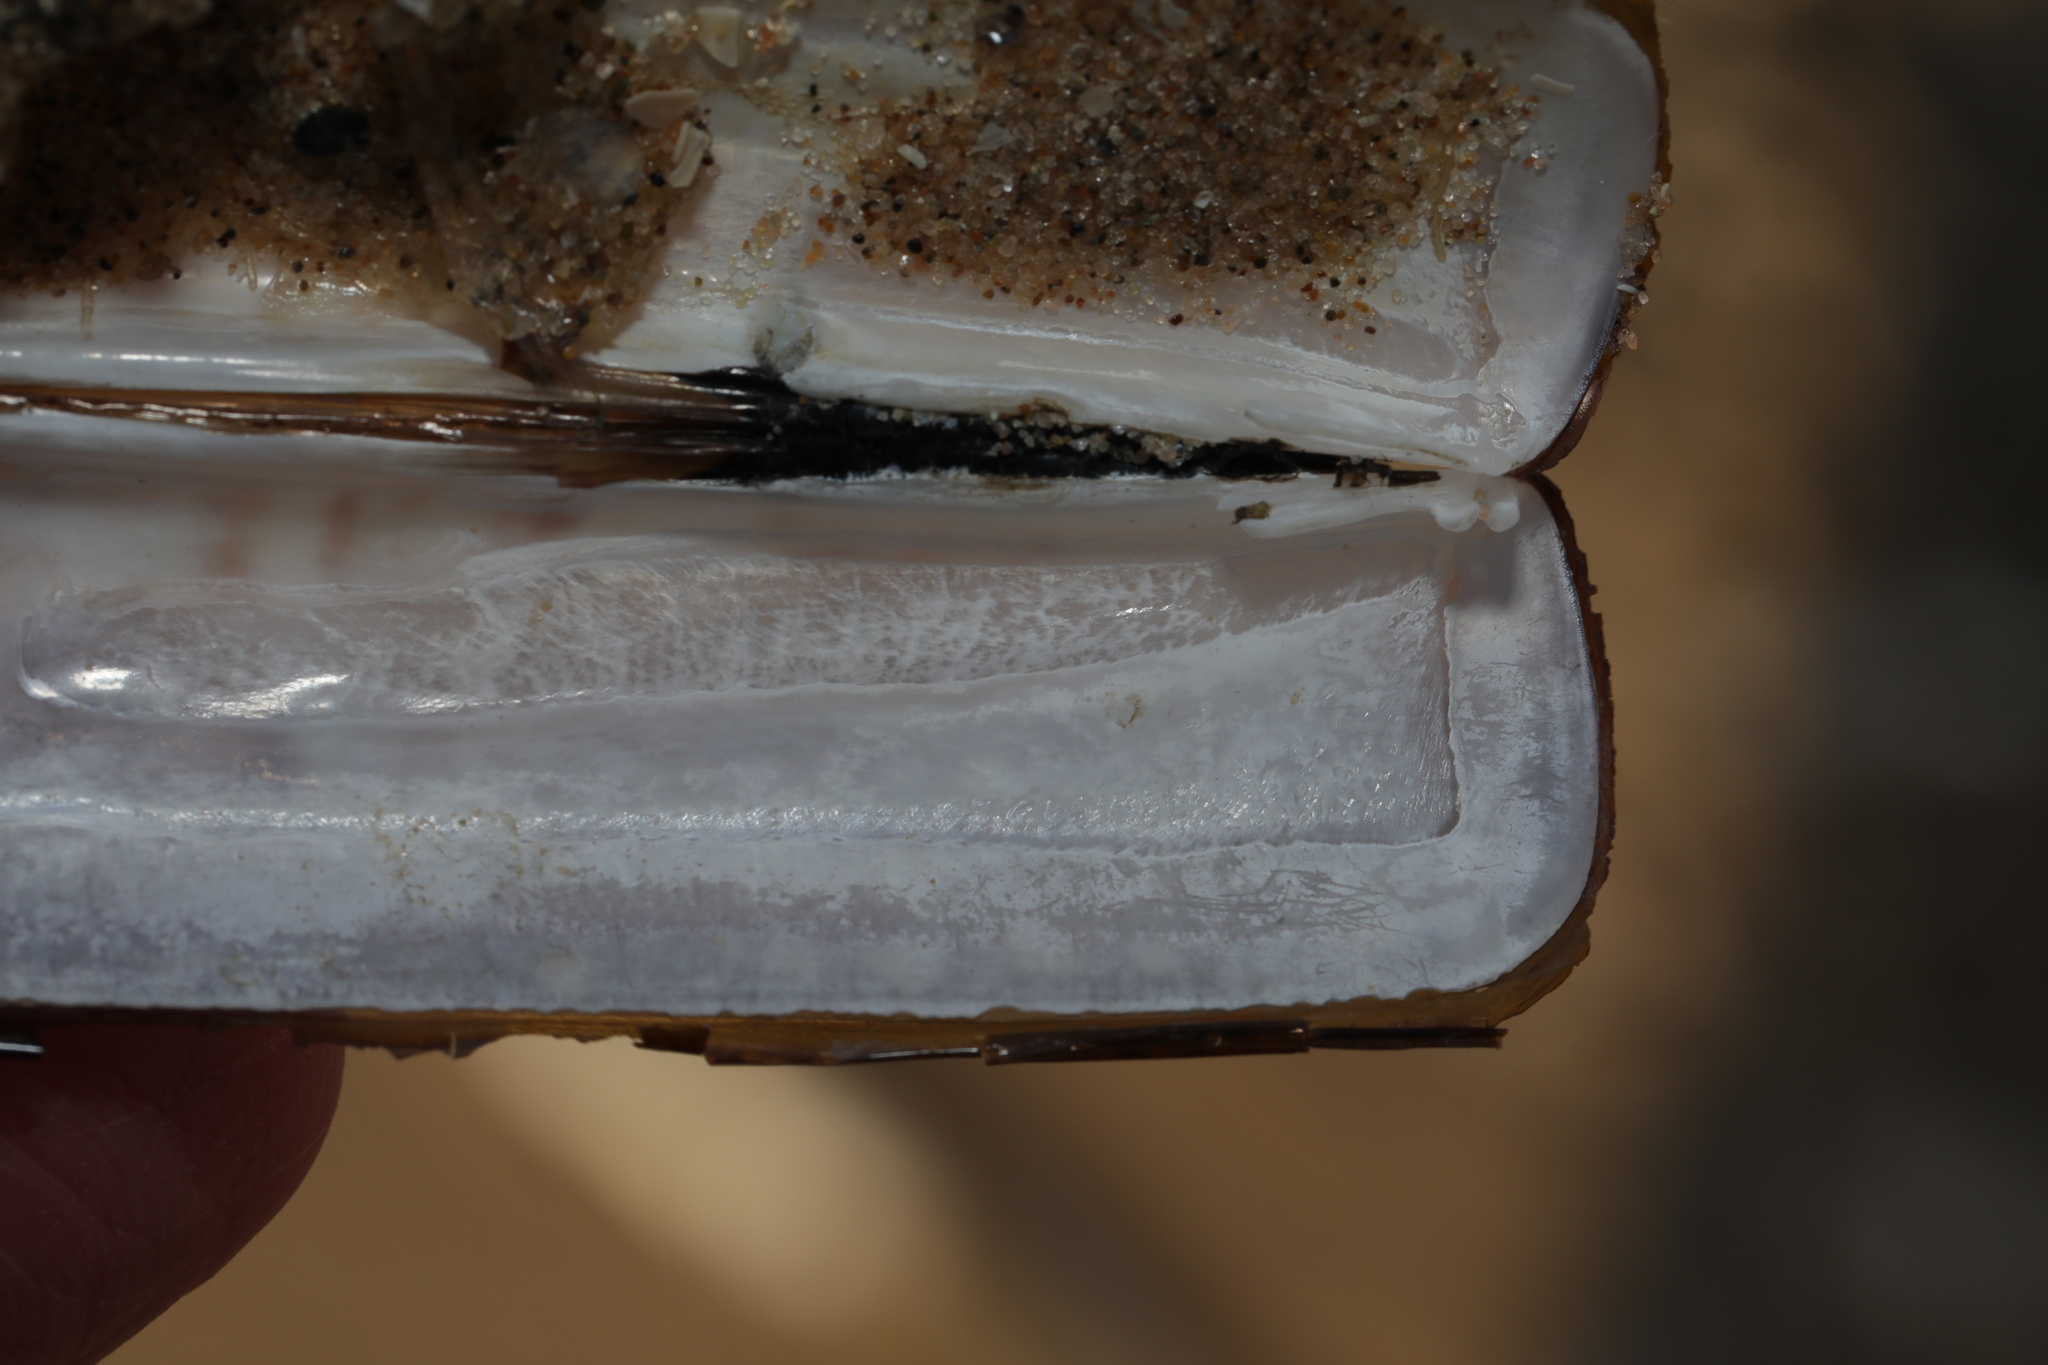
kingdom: Animalia
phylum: Mollusca
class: Bivalvia
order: Adapedonta
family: Pharidae
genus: Ensis
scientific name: Ensis siliqua
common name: Pod razor shell
